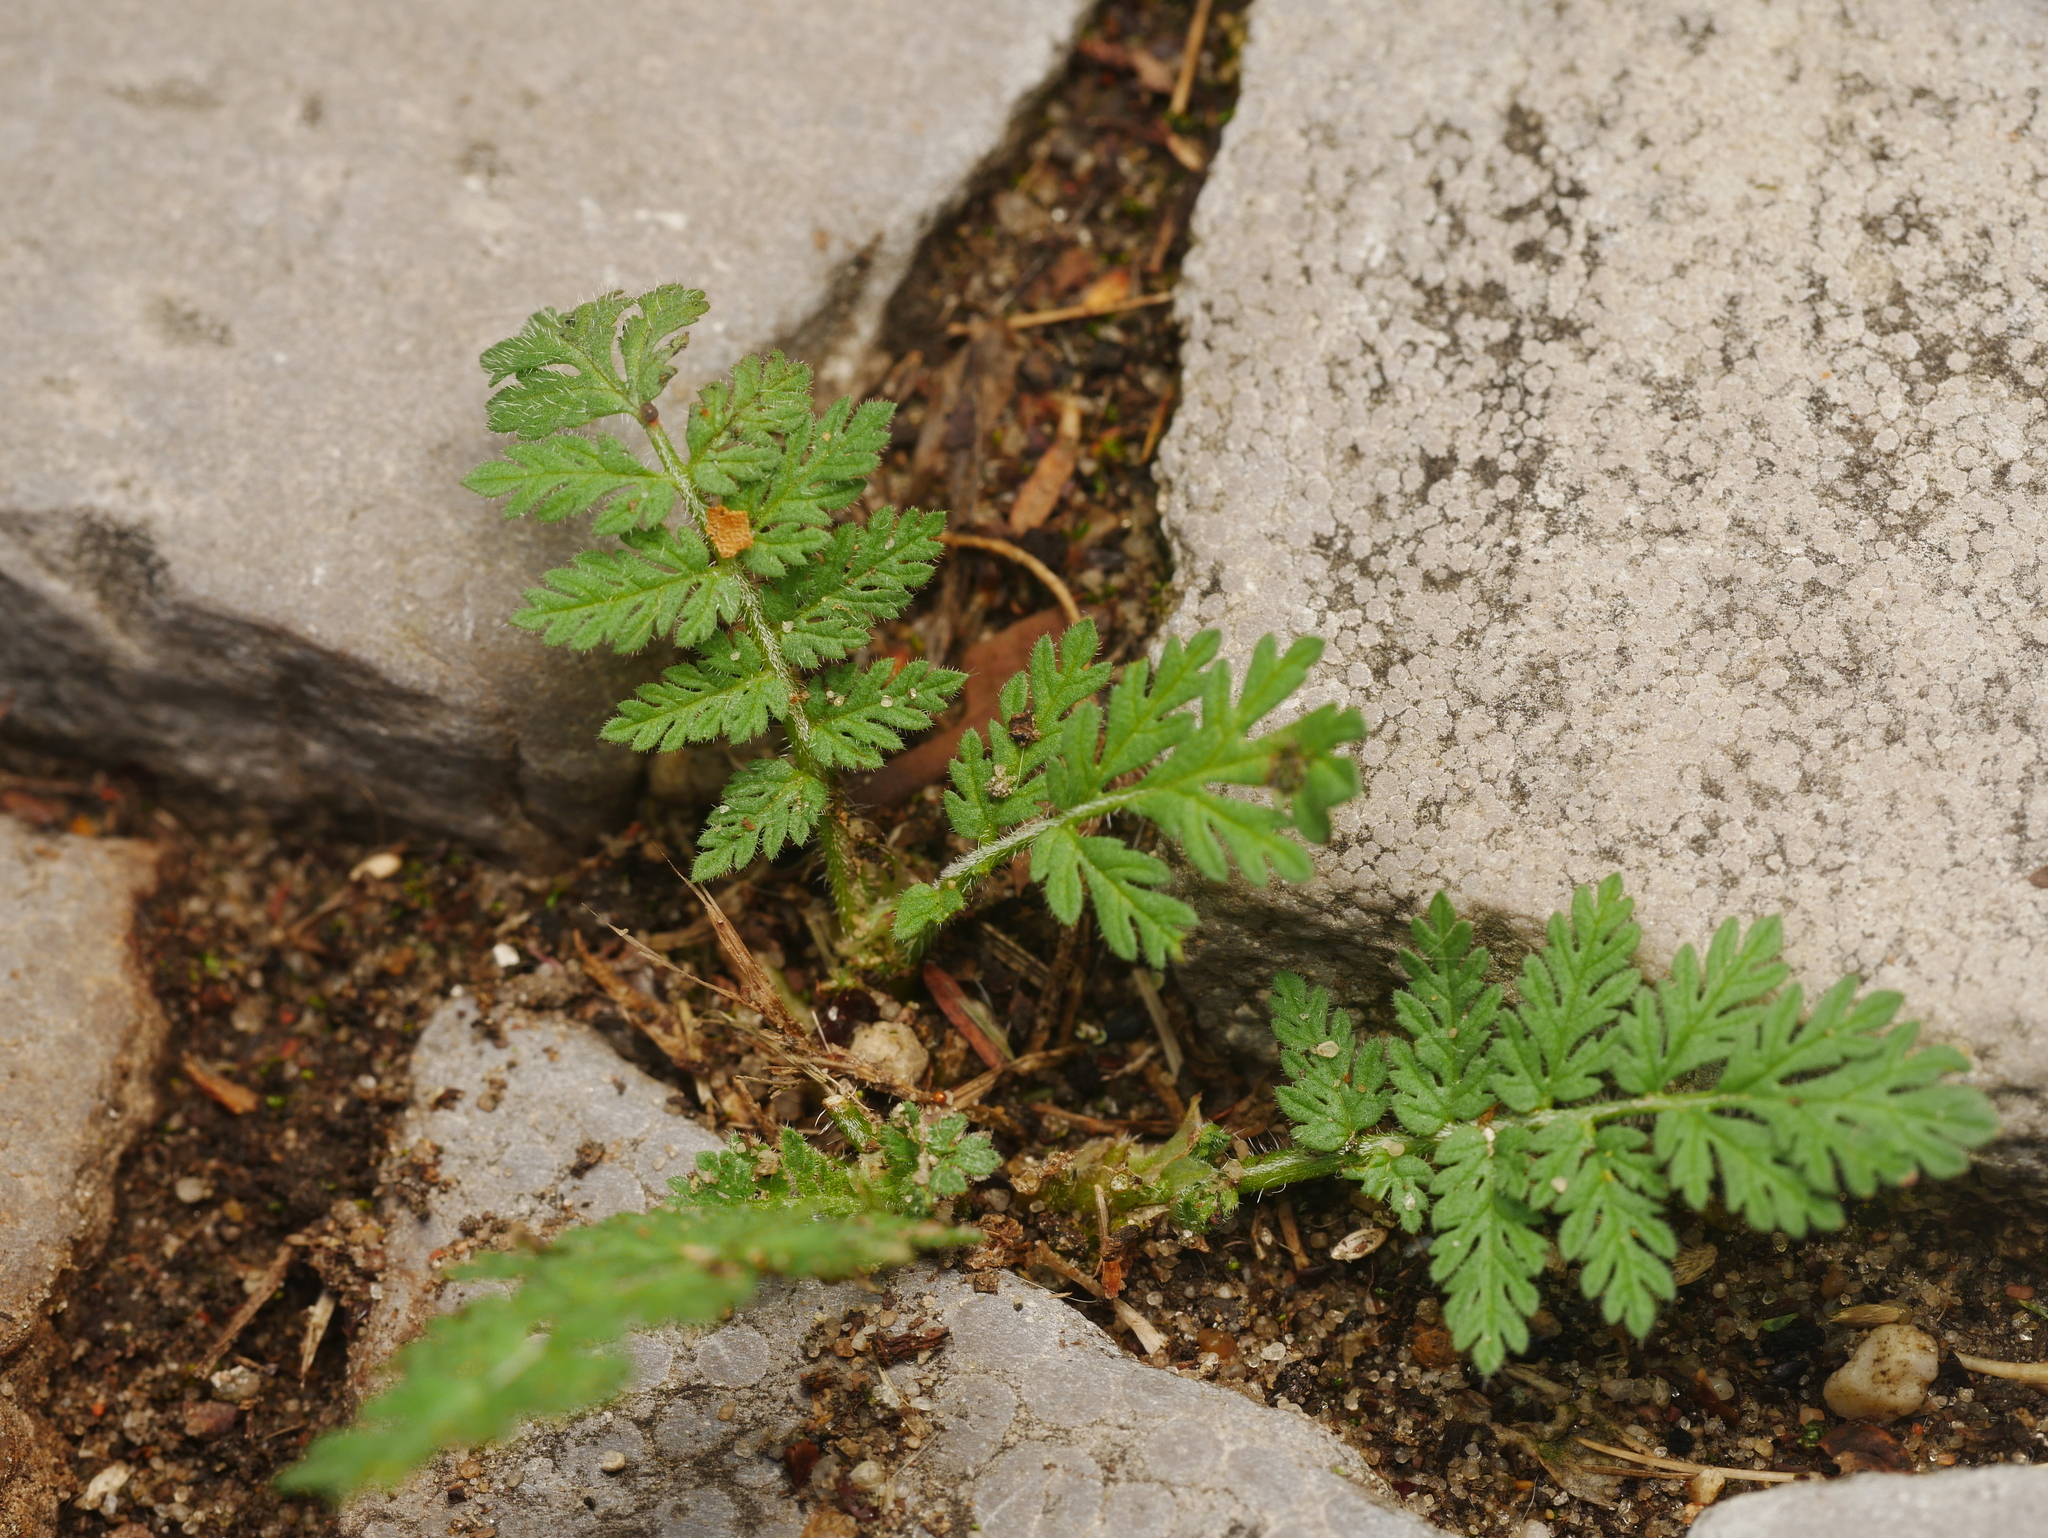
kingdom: Plantae
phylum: Tracheophyta
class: Magnoliopsida
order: Geraniales
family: Geraniaceae
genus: Erodium
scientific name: Erodium cicutarium
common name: Common stork's-bill
